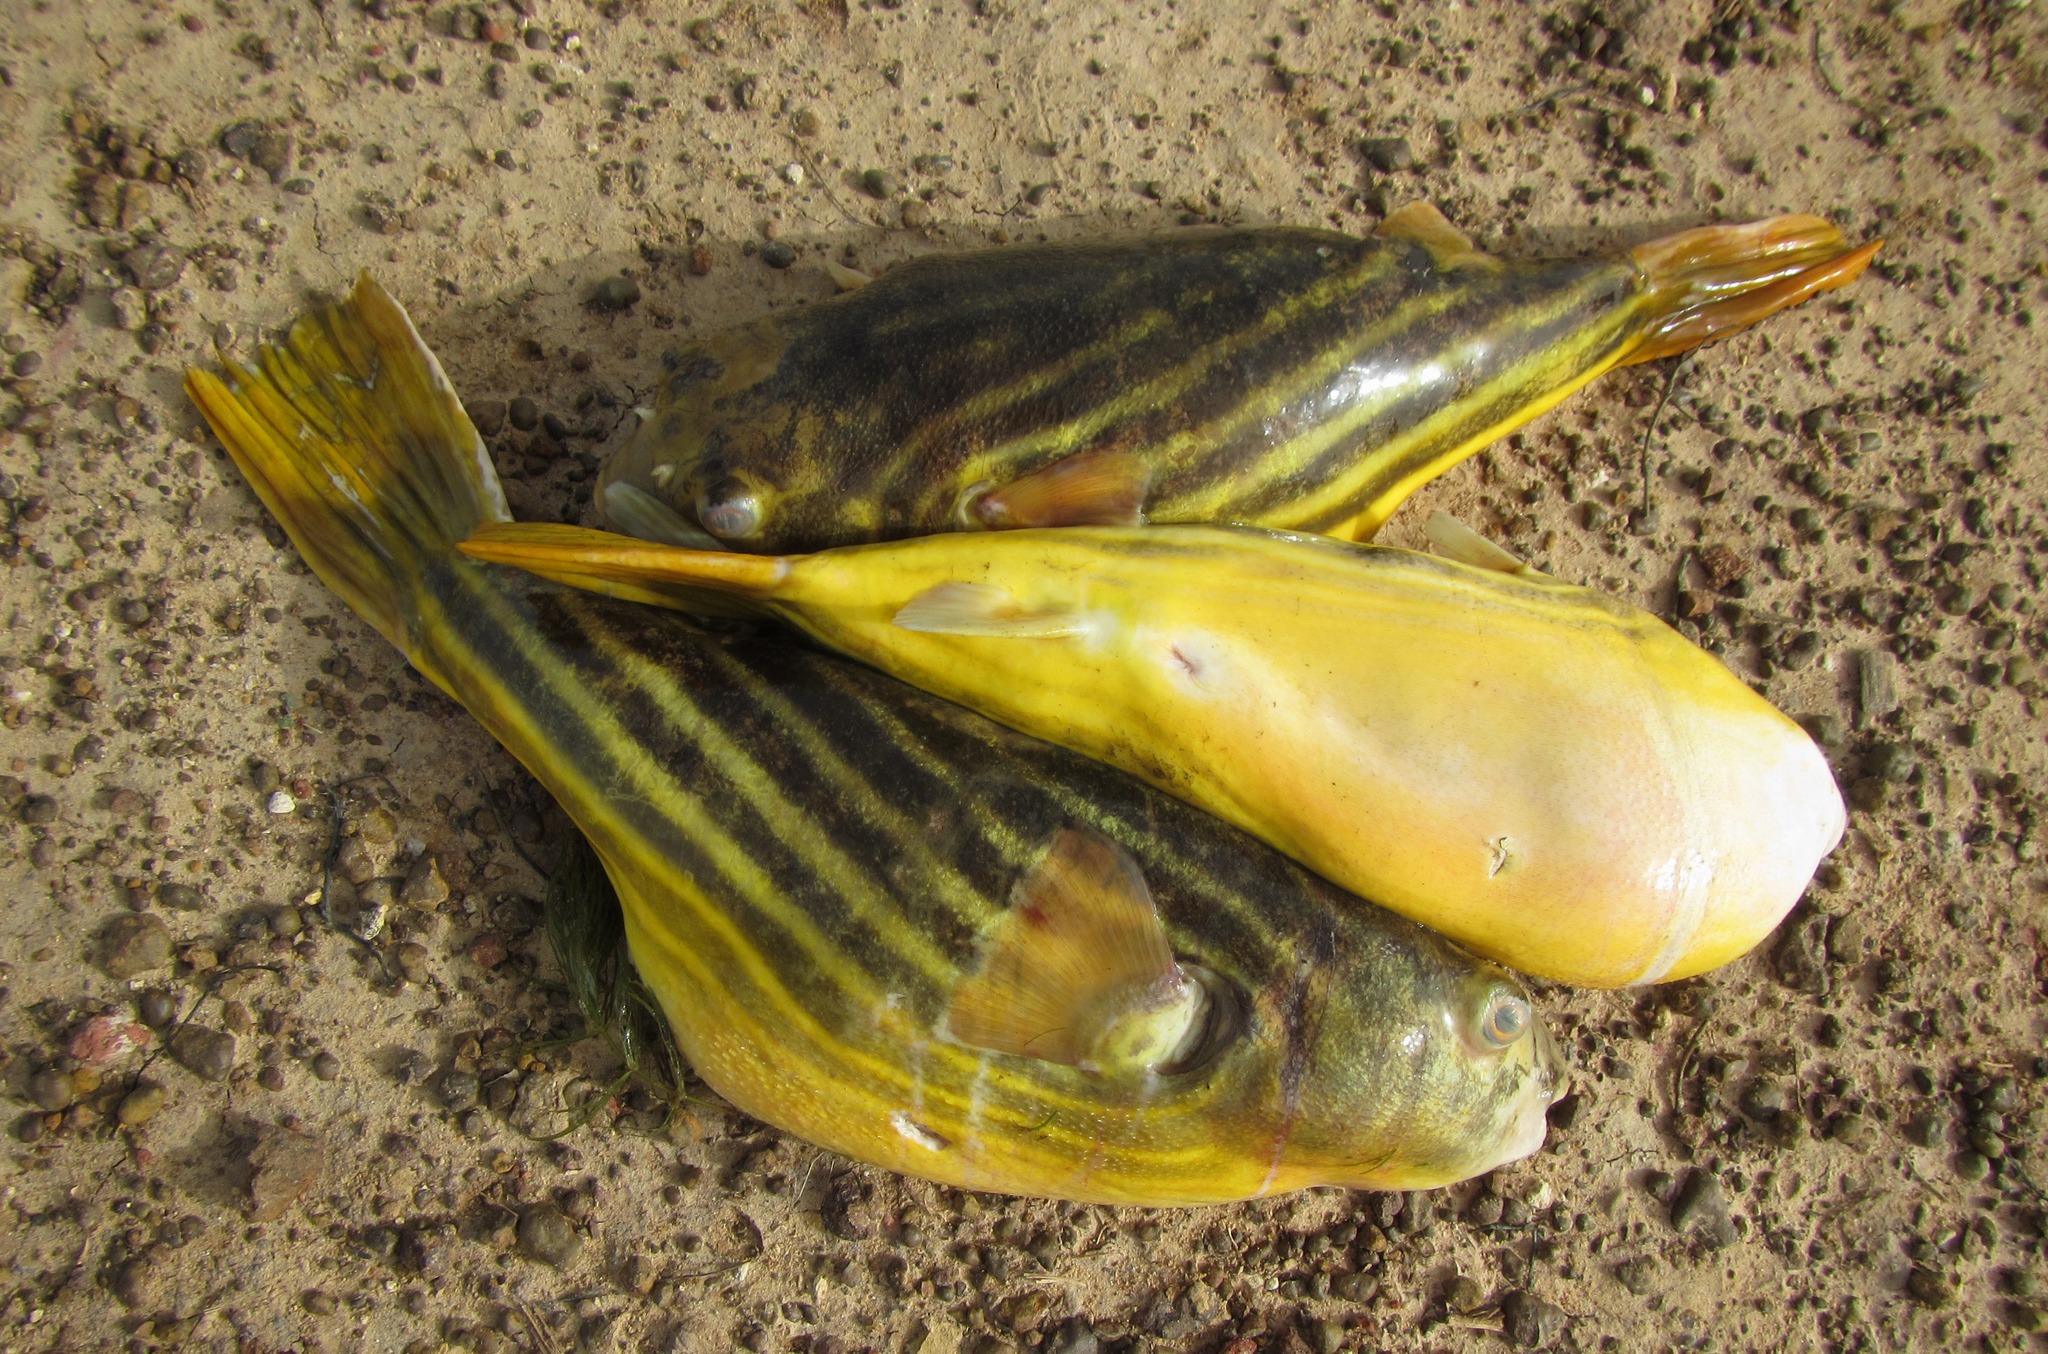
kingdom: Animalia
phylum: Chordata
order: Tetraodontiformes
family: Tetraodontidae
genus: Tetraodon
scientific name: Tetraodon lineatus
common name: Coral butterfly
